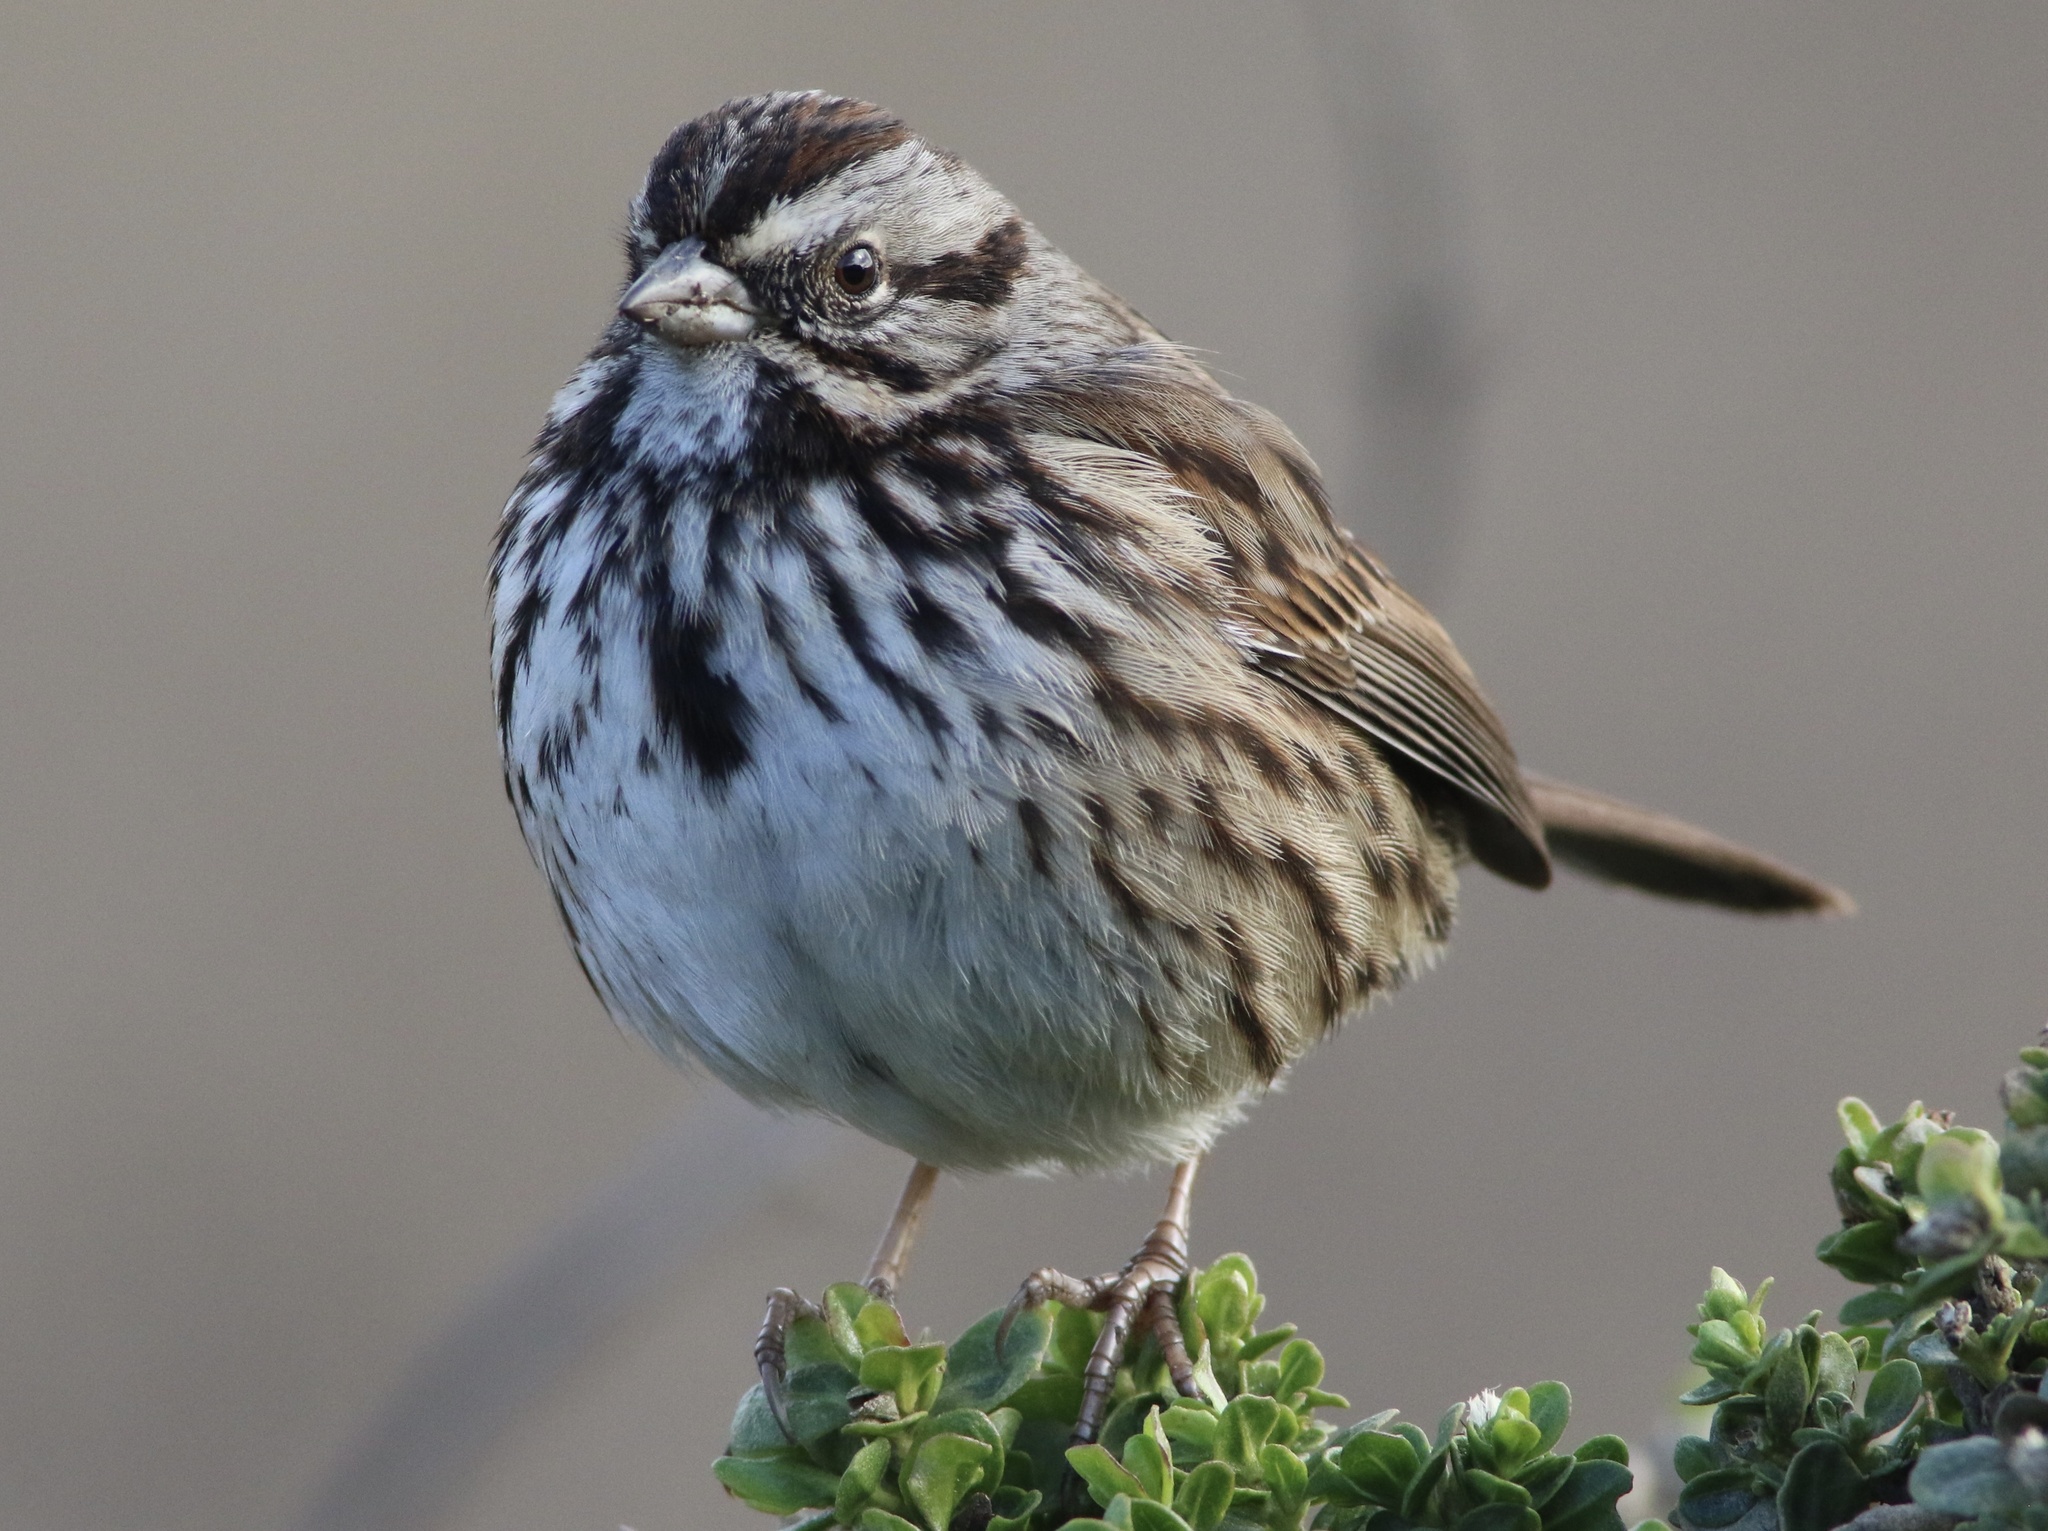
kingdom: Animalia
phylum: Chordata
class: Aves
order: Passeriformes
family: Passerellidae
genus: Melospiza
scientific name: Melospiza melodia
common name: Song sparrow
